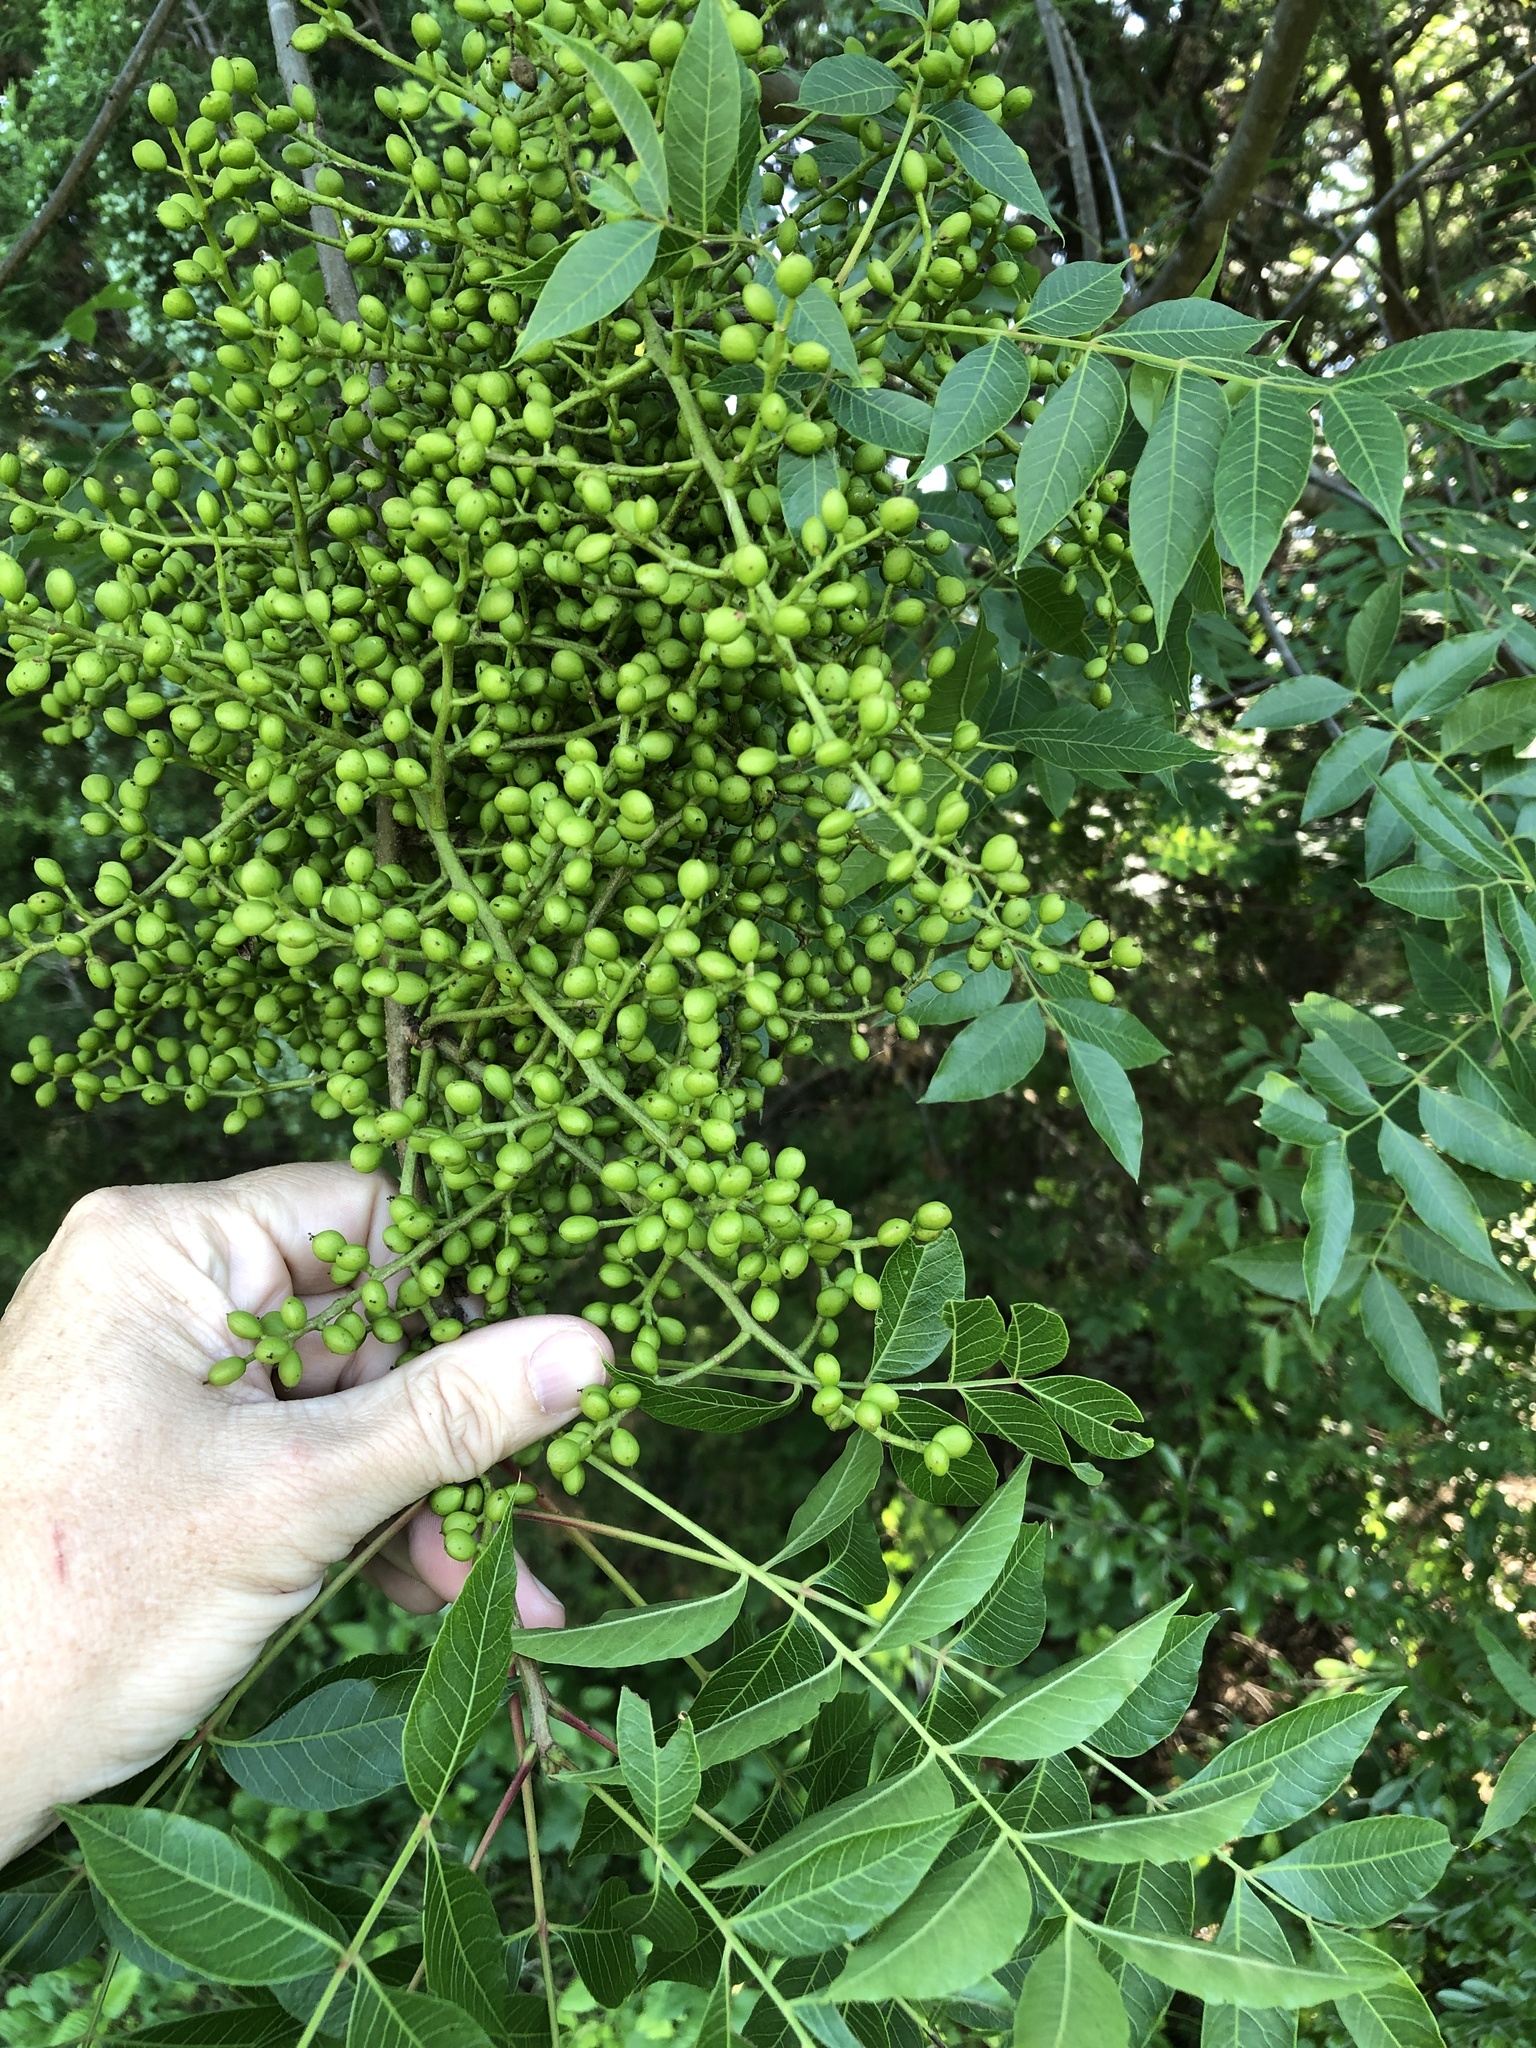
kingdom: Plantae
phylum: Tracheophyta
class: Magnoliopsida
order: Sapindales
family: Anacardiaceae
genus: Pistacia
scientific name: Pistacia chinensis
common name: Chinese pistache
